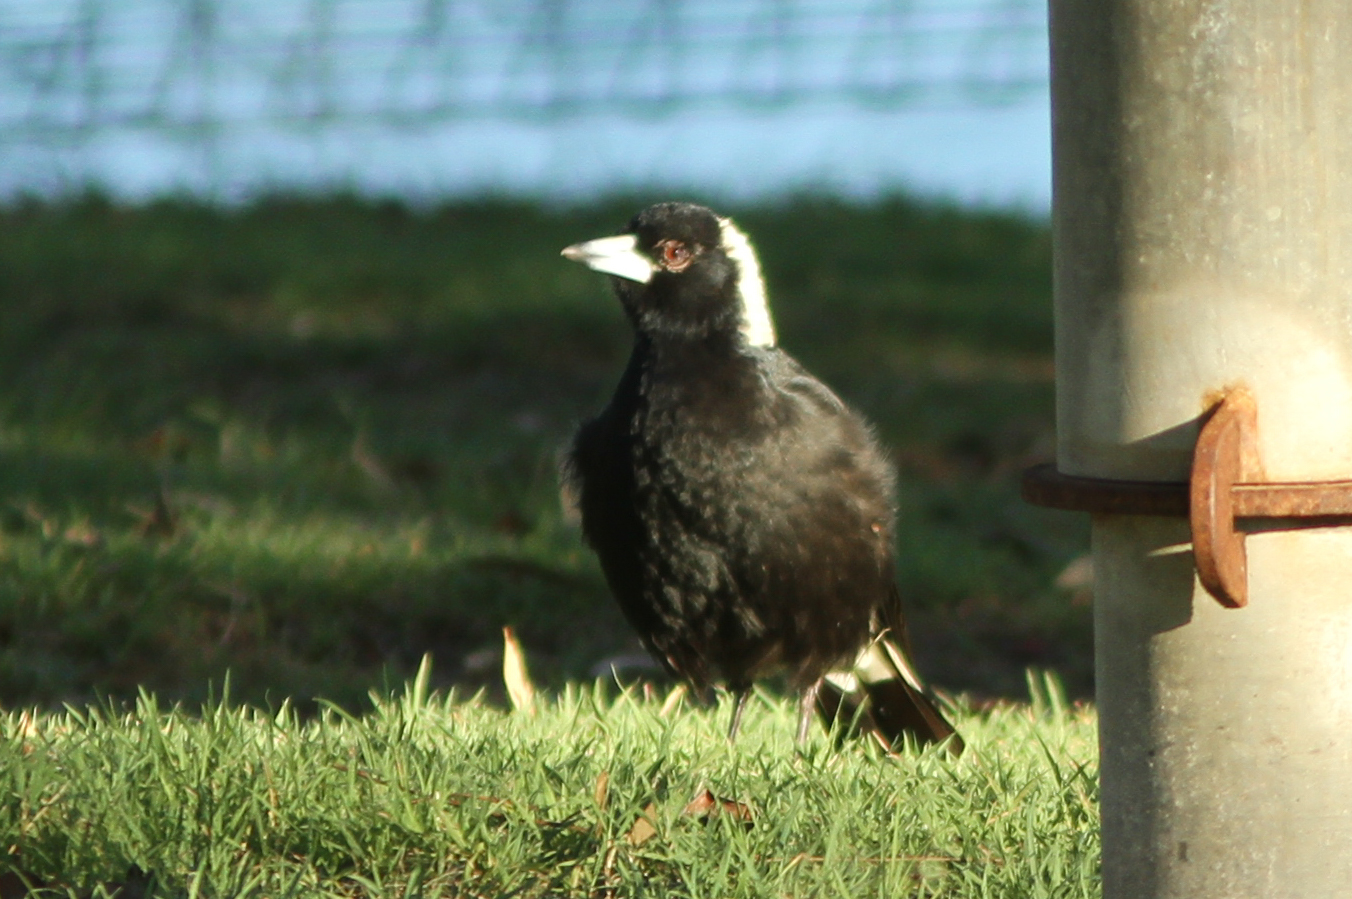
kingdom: Animalia
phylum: Chordata
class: Aves
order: Passeriformes
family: Cracticidae
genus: Gymnorhina
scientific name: Gymnorhina tibicen
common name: Australian magpie
